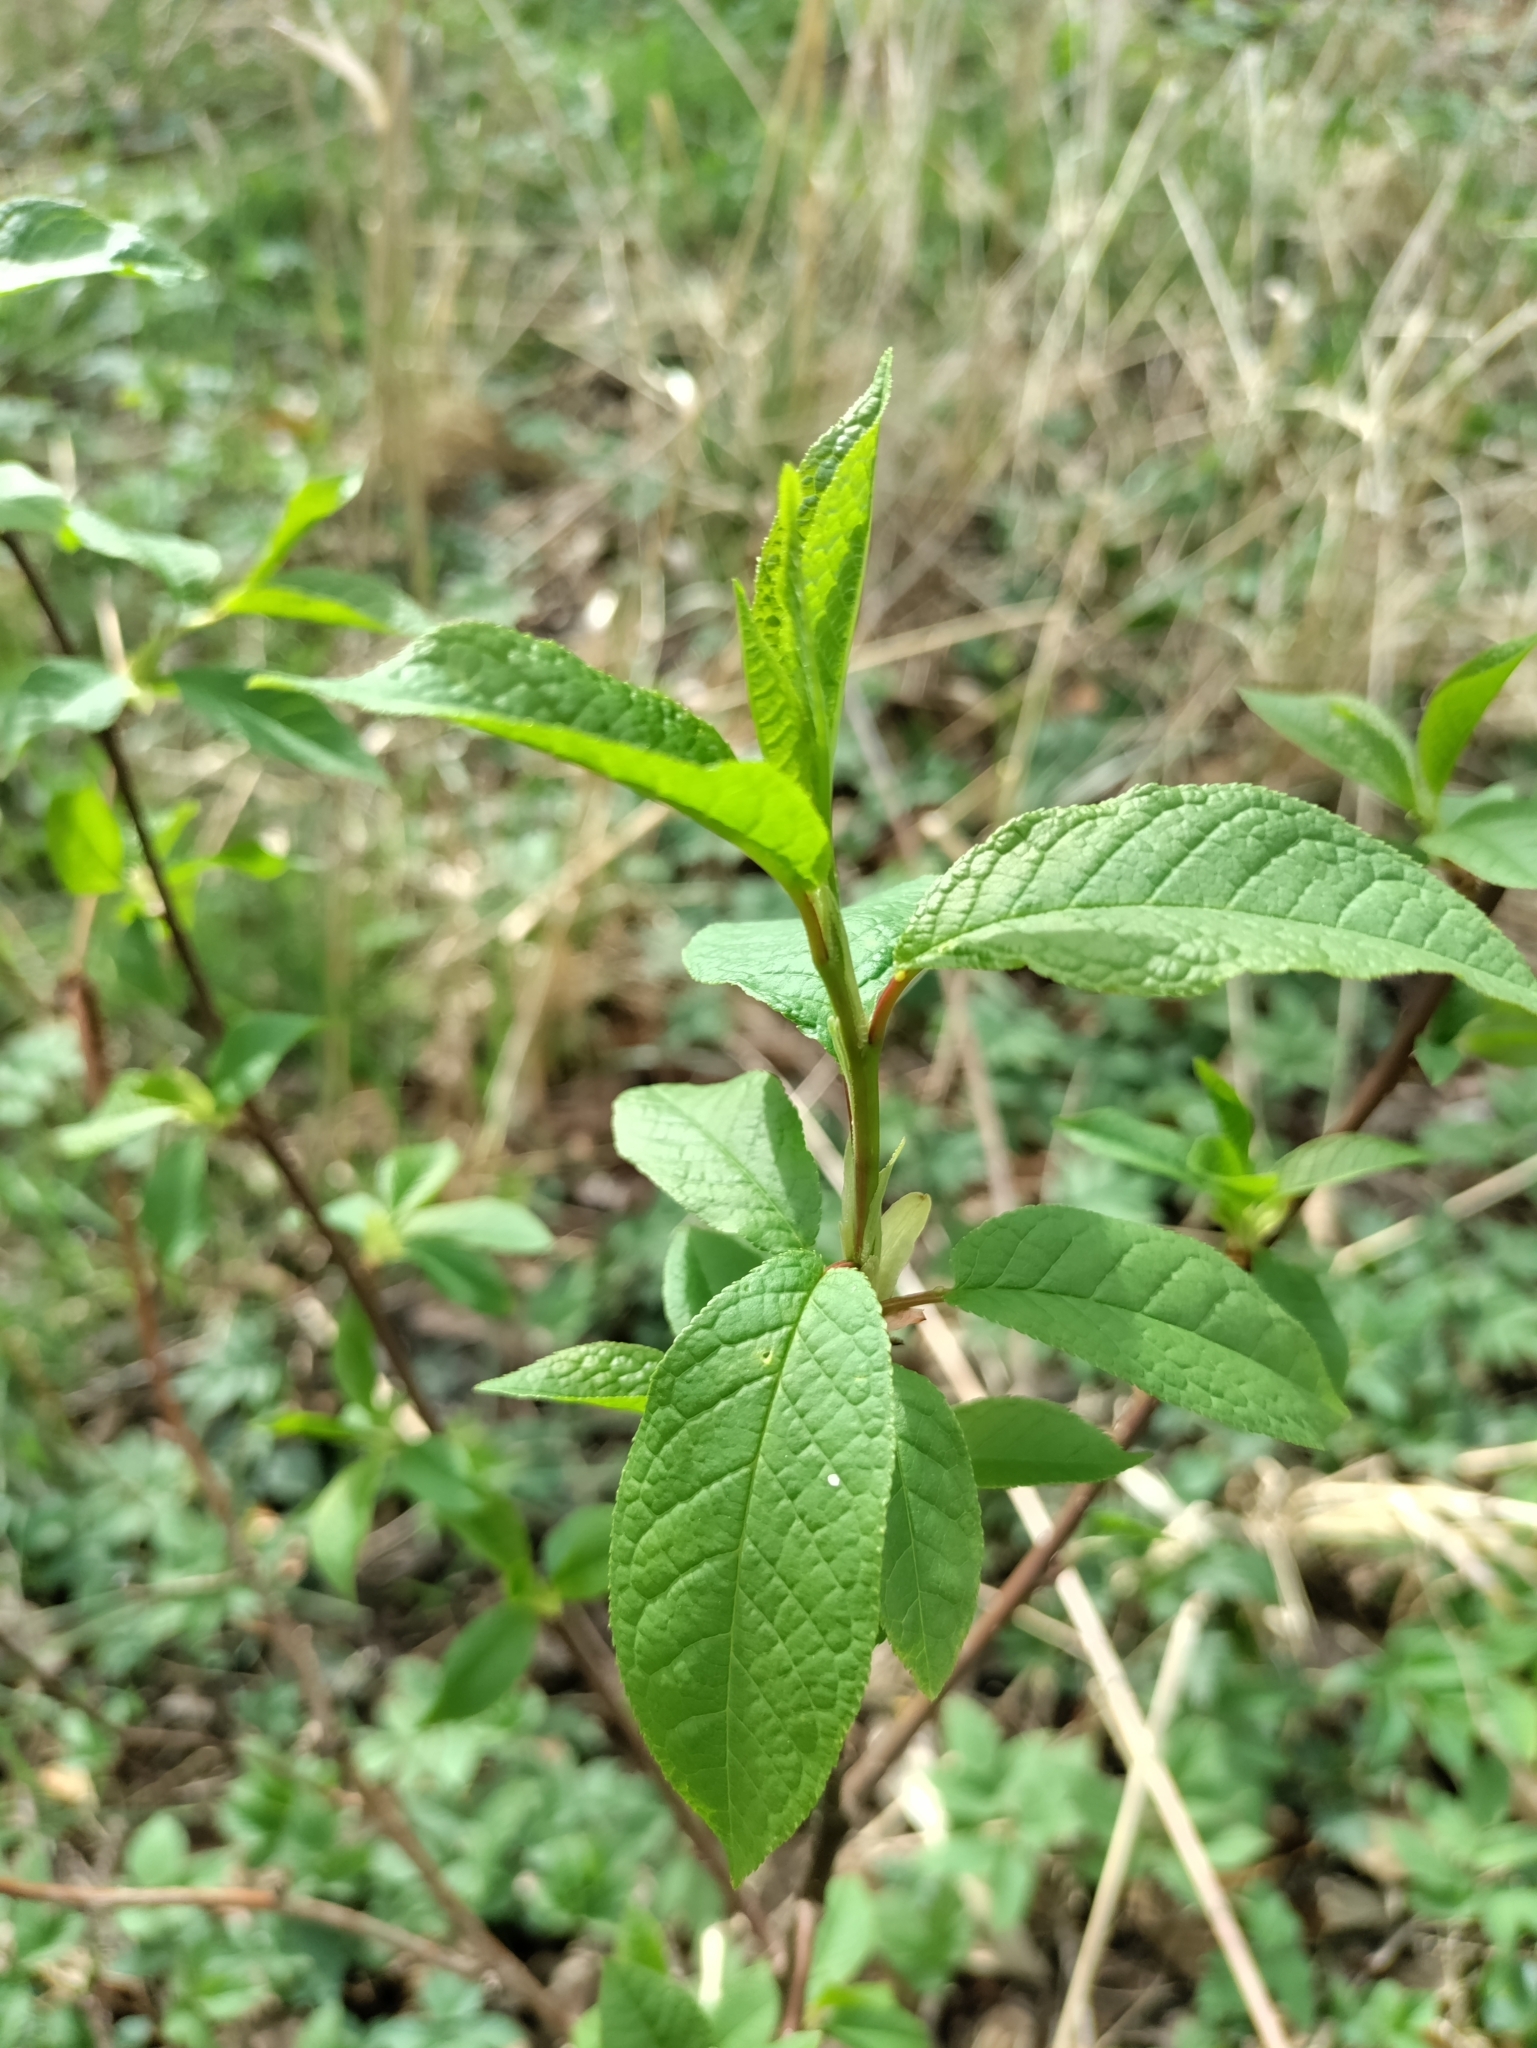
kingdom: Plantae
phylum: Tracheophyta
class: Magnoliopsida
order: Rosales
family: Rosaceae
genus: Prunus
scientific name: Prunus padus
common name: Bird cherry
